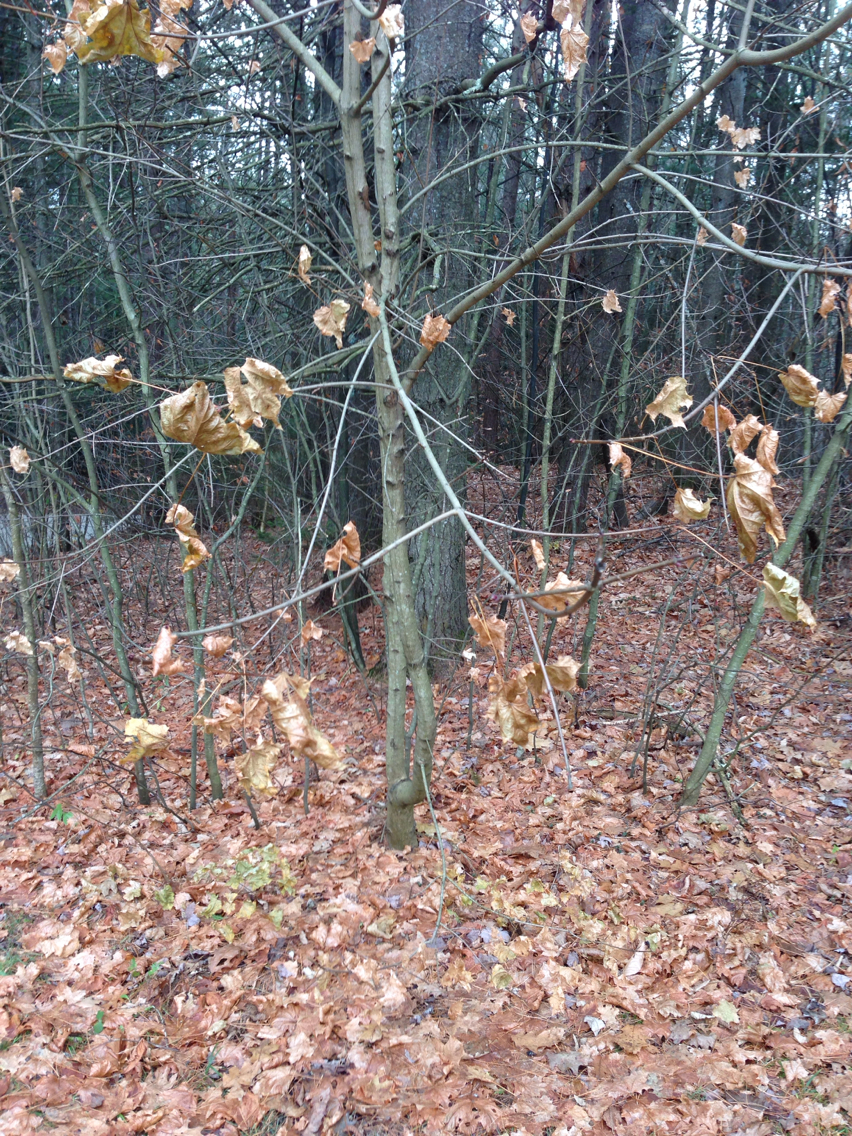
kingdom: Plantae
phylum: Tracheophyta
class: Magnoliopsida
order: Sapindales
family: Sapindaceae
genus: Acer
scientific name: Acer platanoides
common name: Norway maple
